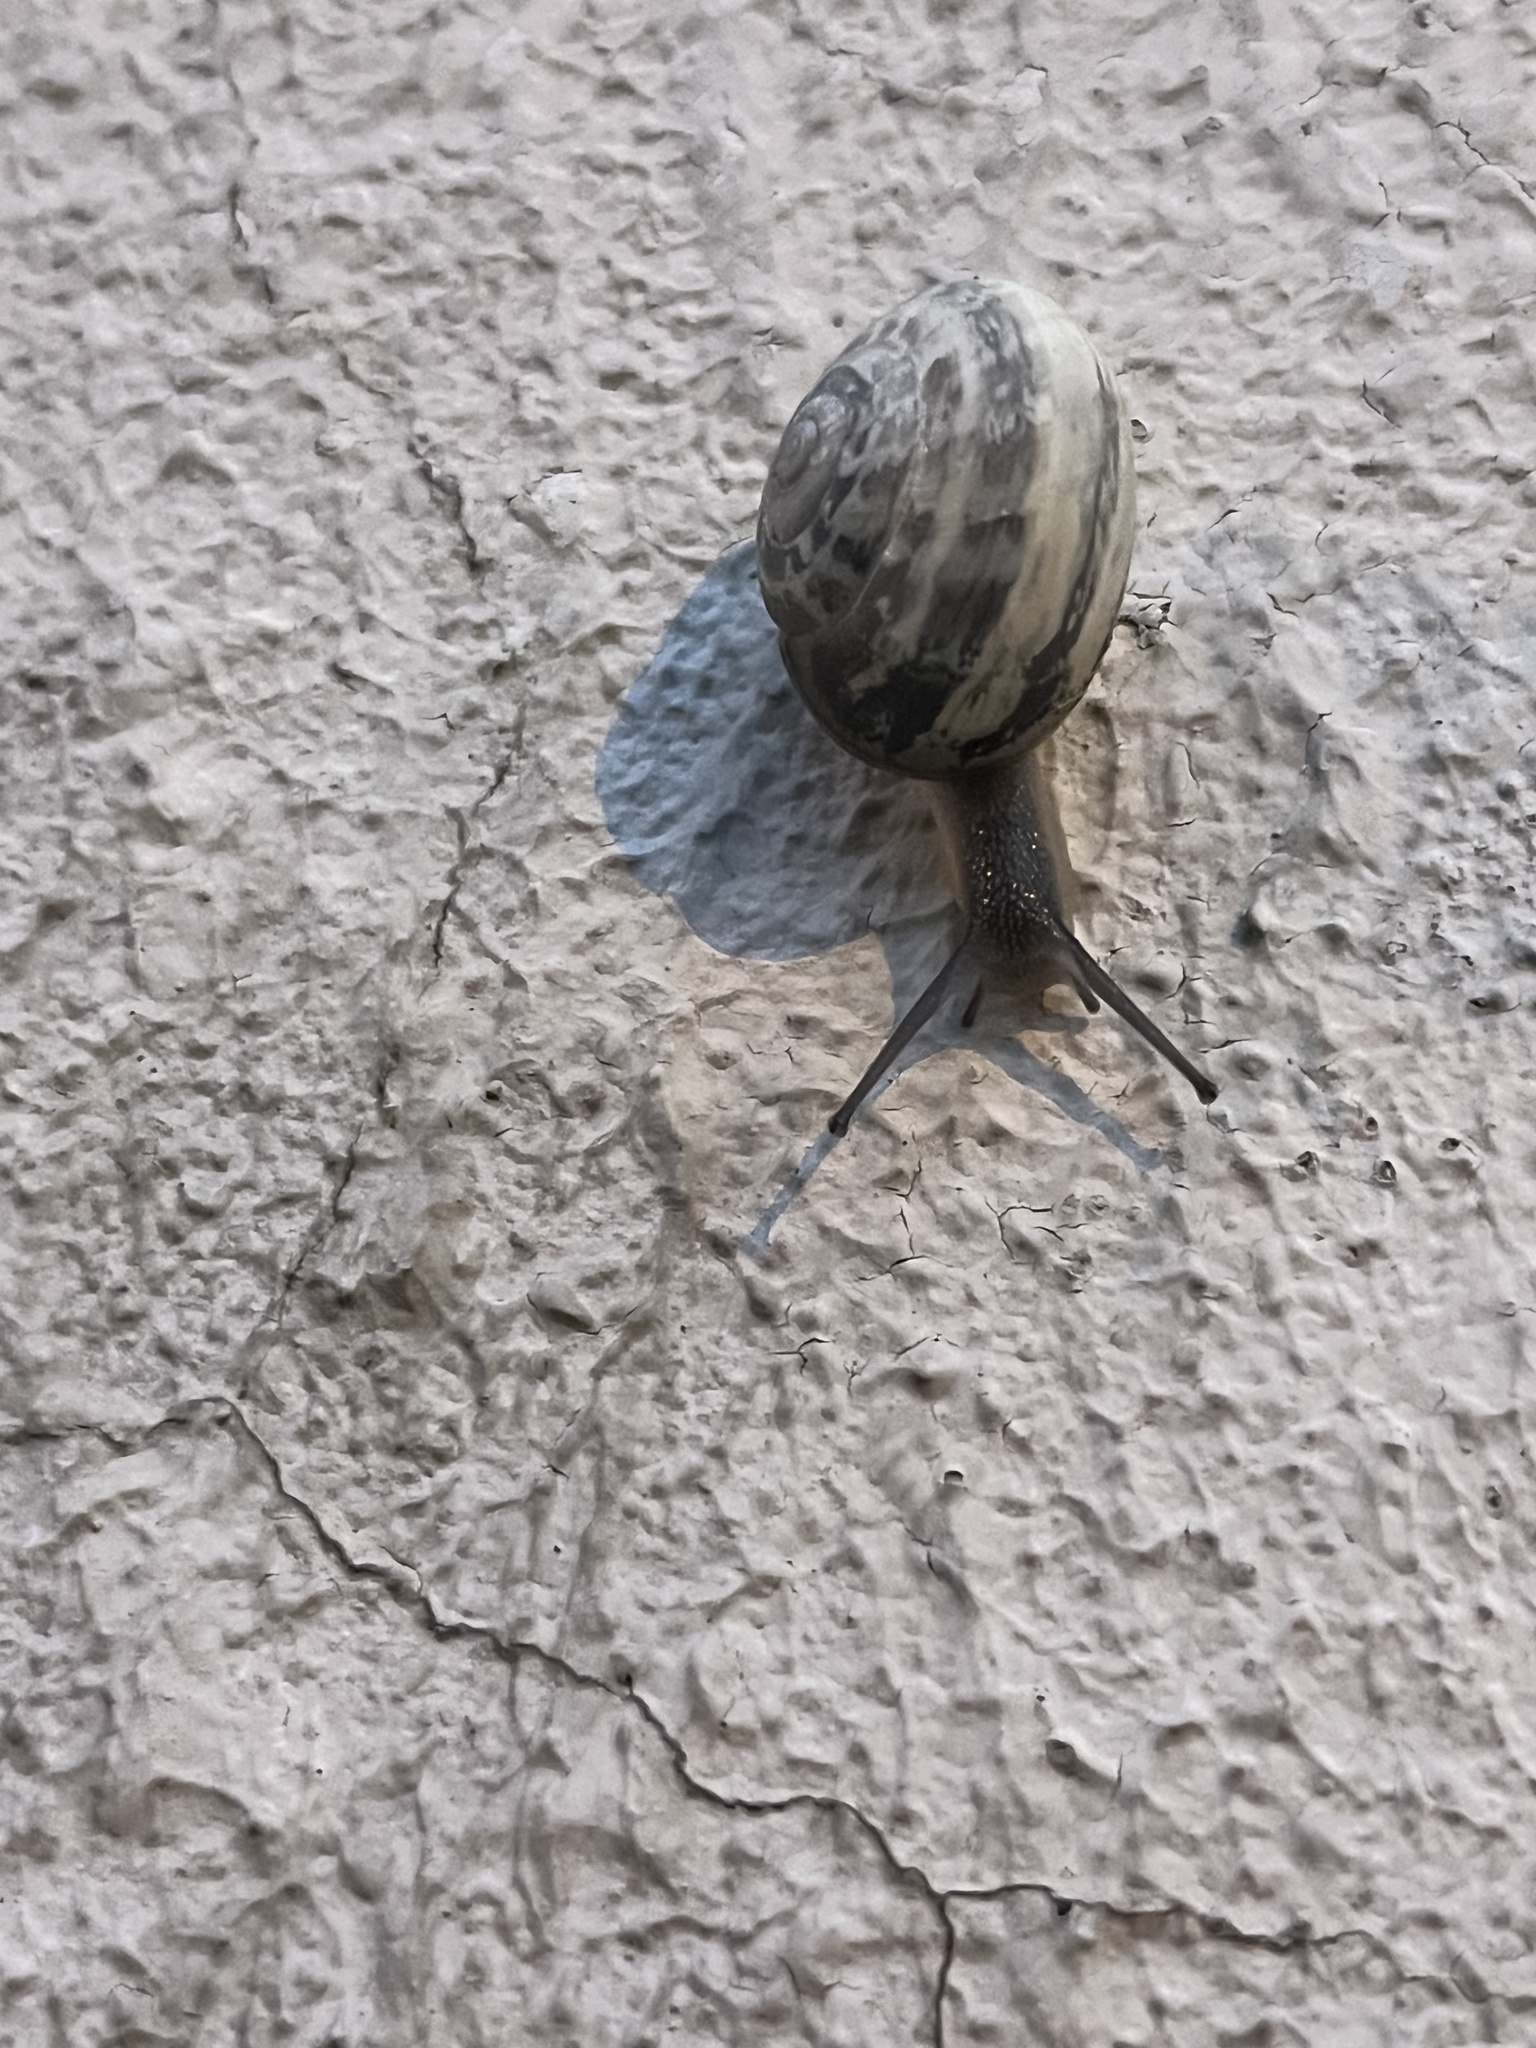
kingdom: Animalia
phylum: Mollusca
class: Gastropoda
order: Stylommatophora
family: Helicidae
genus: Eobania
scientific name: Eobania vermiculata
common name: Chocolateband snail
